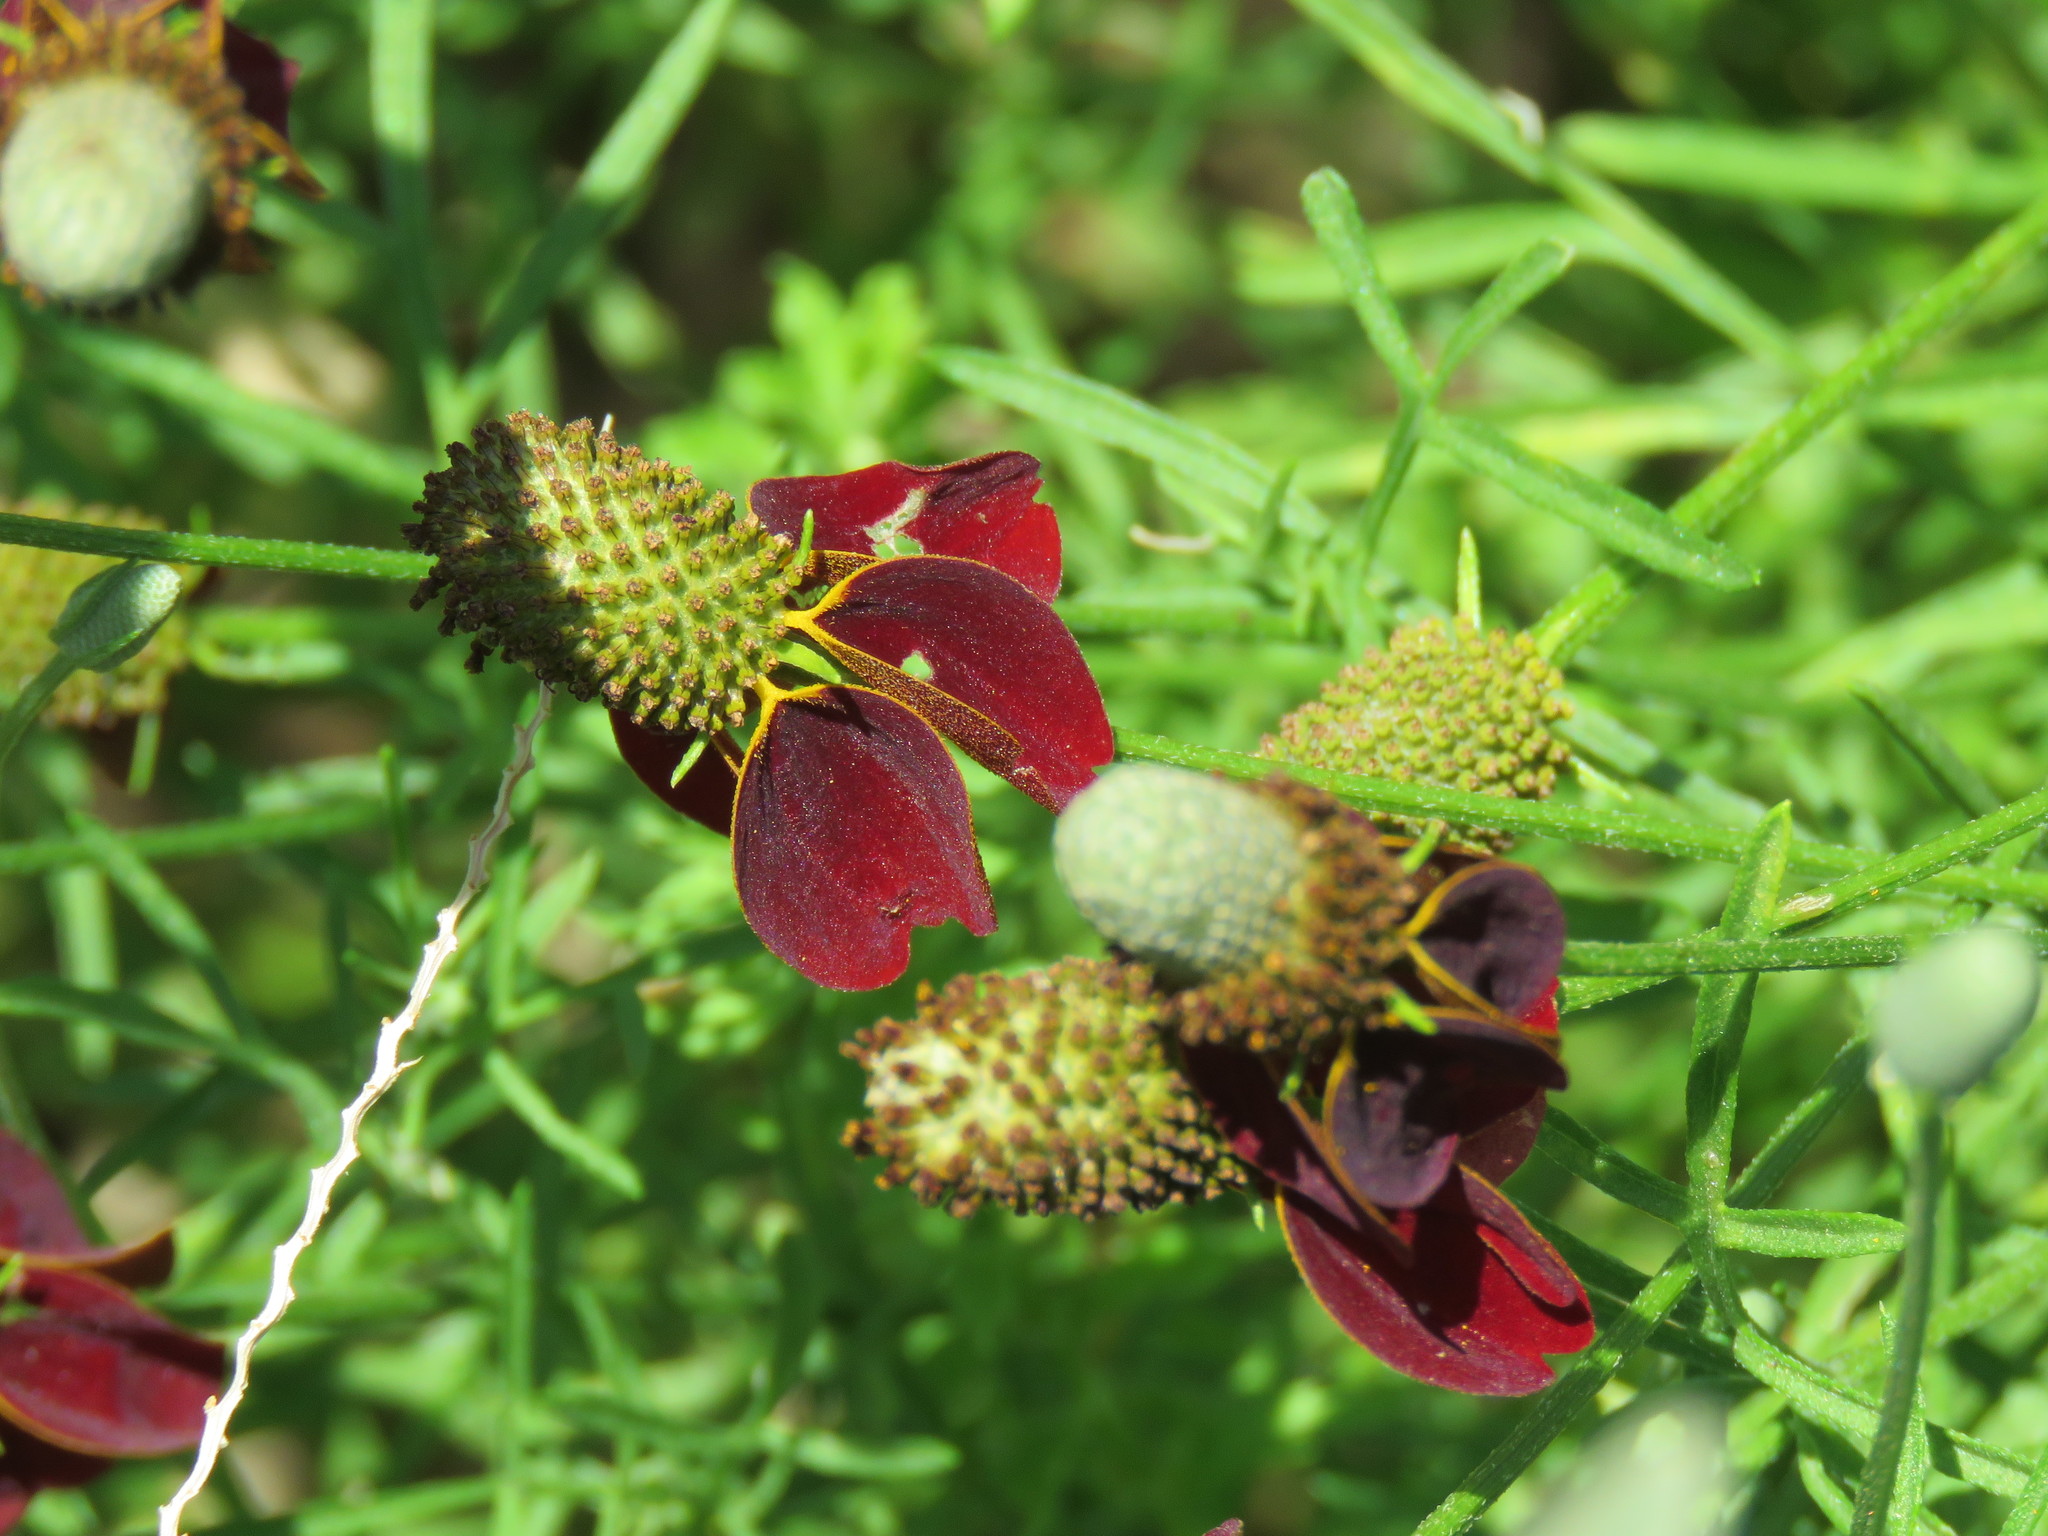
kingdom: Plantae
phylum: Tracheophyta
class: Magnoliopsida
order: Asterales
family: Asteraceae
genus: Ratibida
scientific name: Ratibida columnifera
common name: Prairie coneflower
